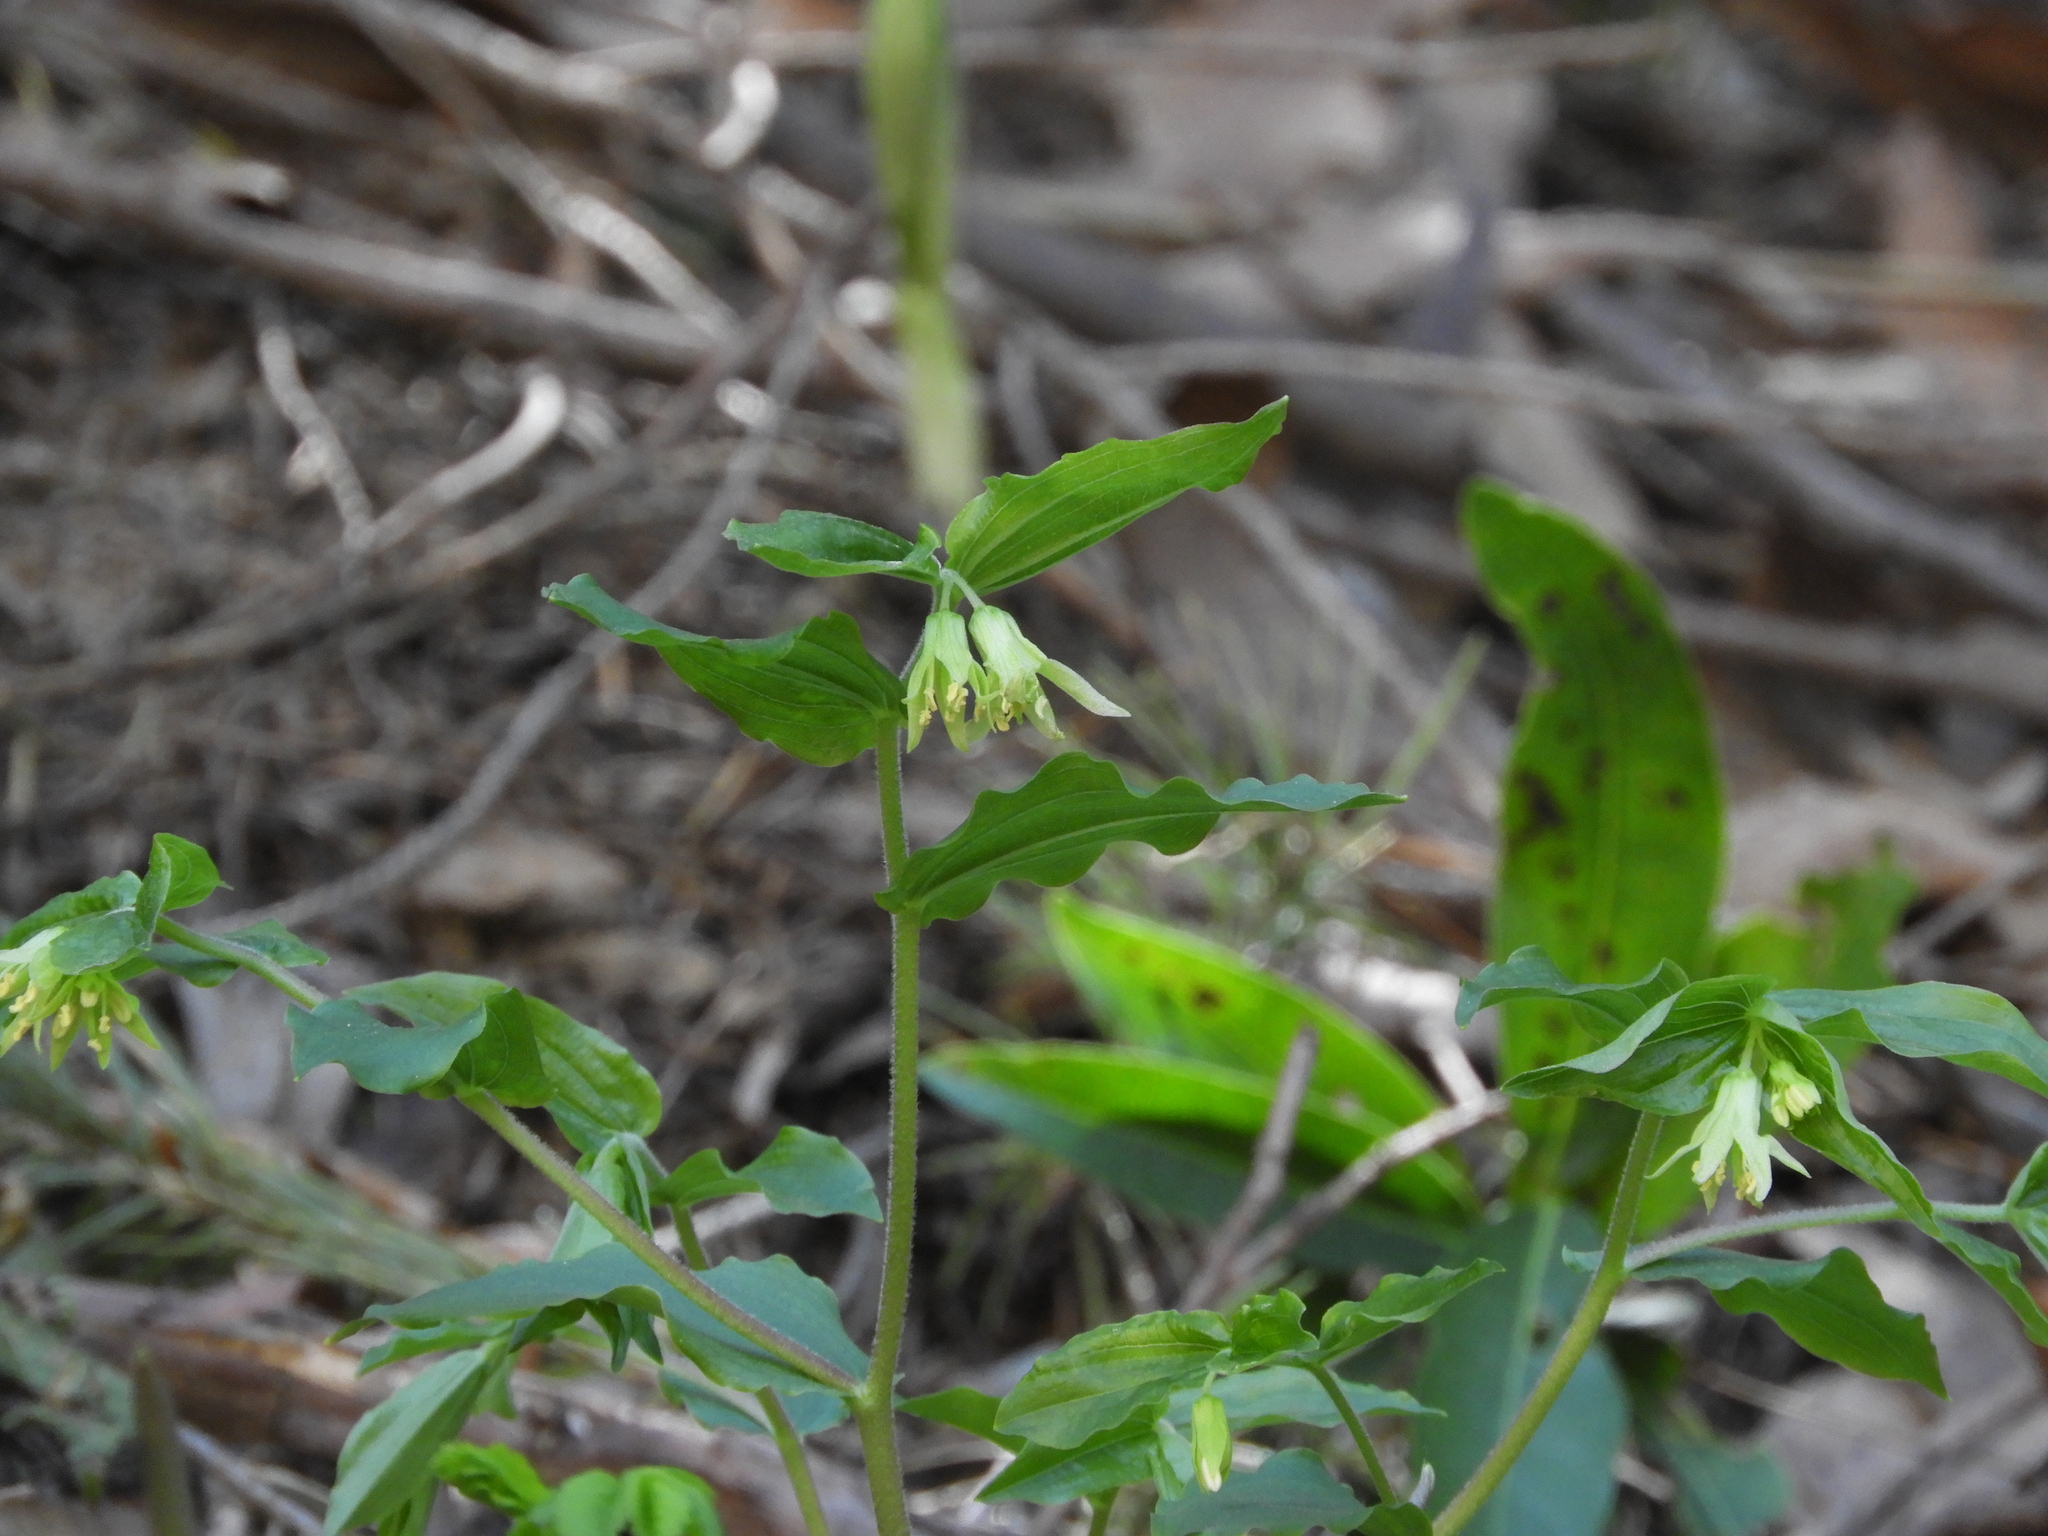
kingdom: Plantae
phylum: Tracheophyta
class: Liliopsida
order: Liliales
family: Liliaceae
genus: Prosartes
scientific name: Prosartes hookeri
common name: Fairy-bells
